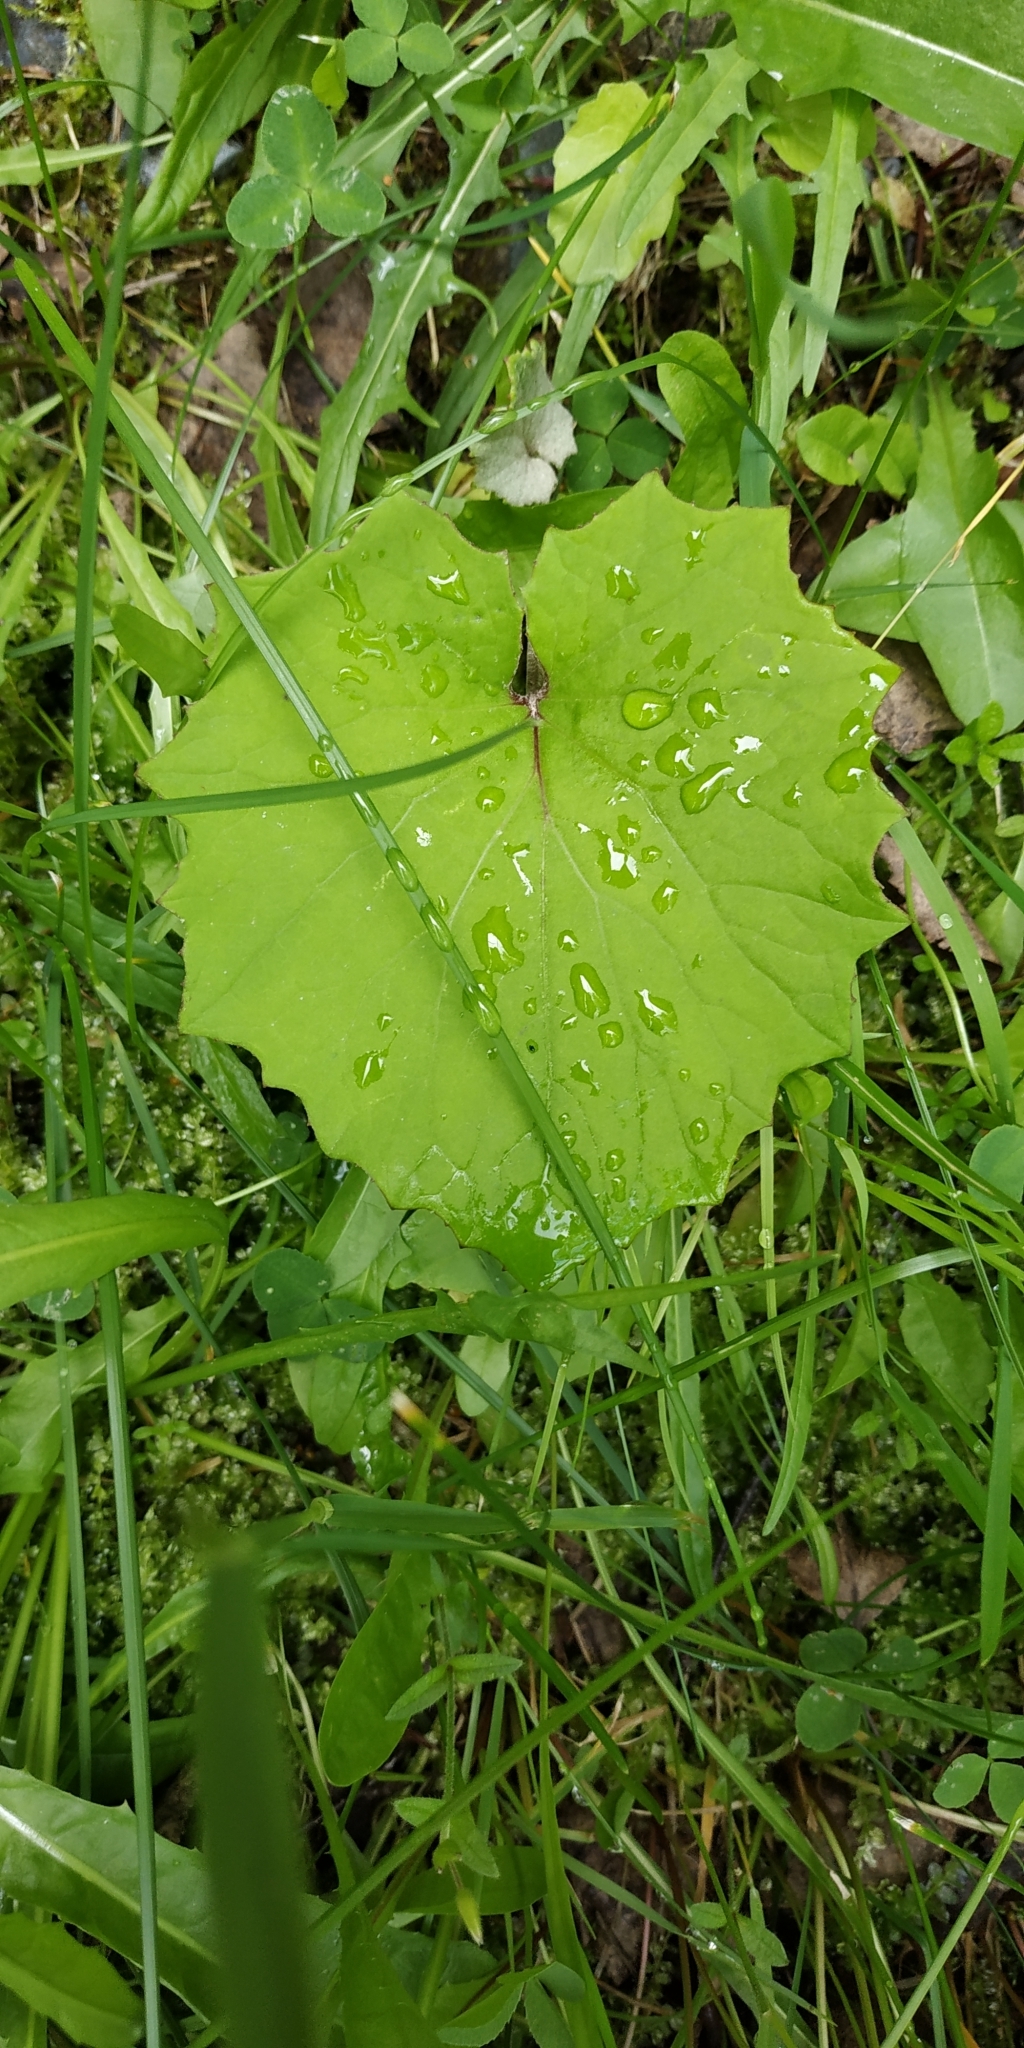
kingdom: Plantae
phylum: Tracheophyta
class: Magnoliopsida
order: Asterales
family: Asteraceae
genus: Tussilago
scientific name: Tussilago farfara
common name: Coltsfoot
